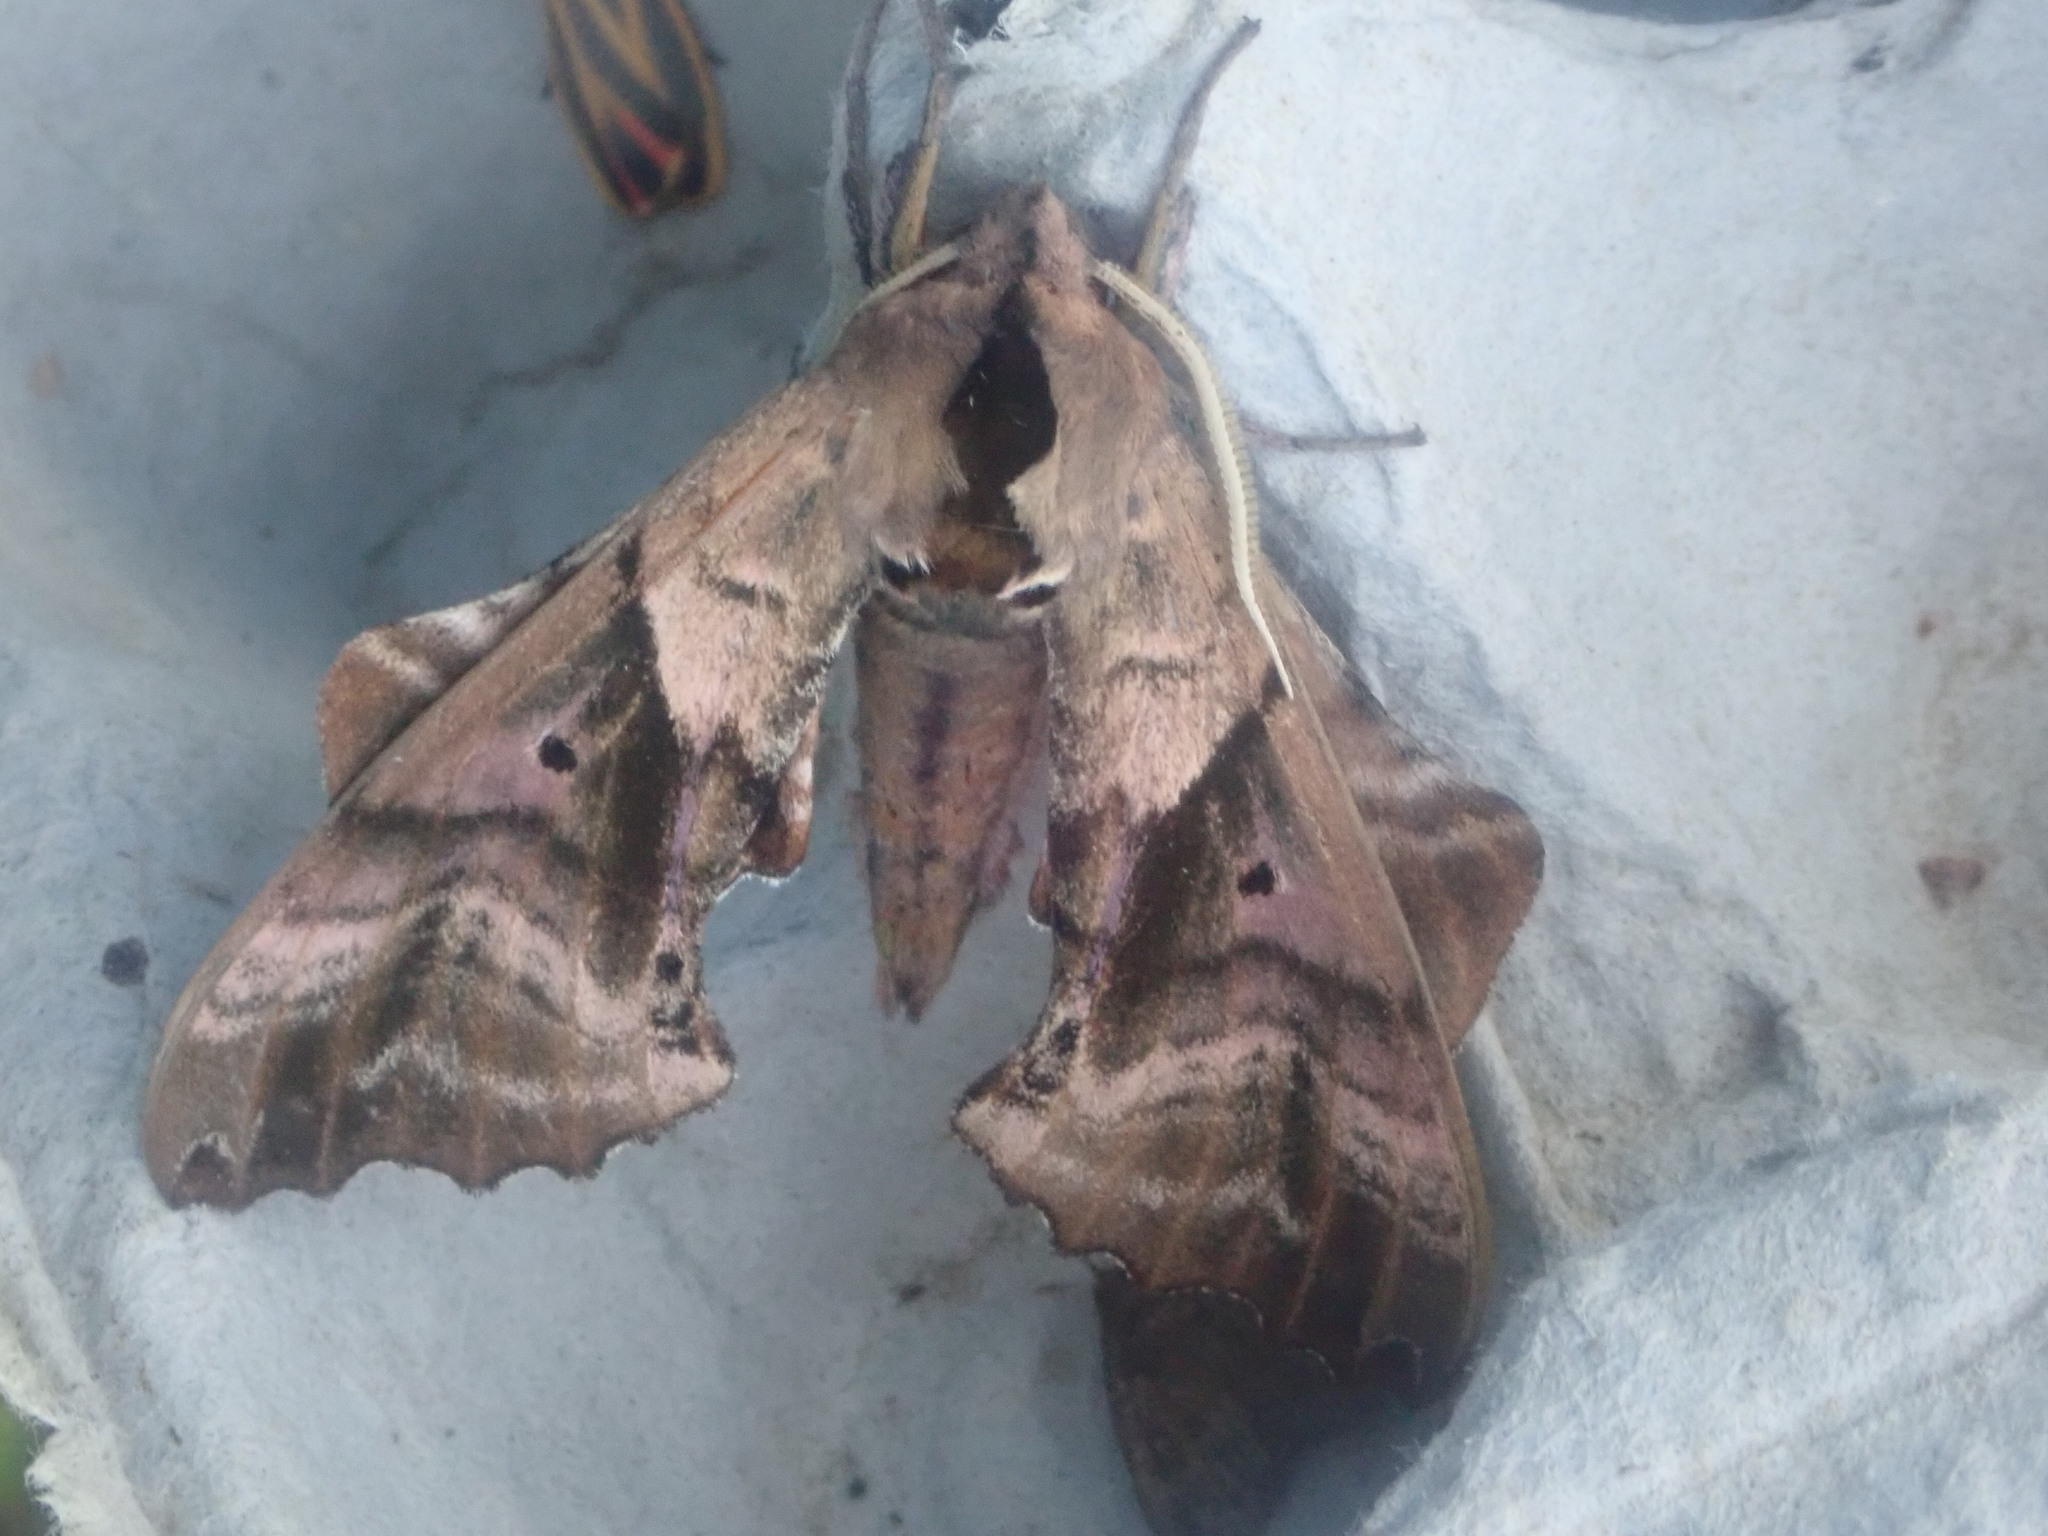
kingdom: Animalia
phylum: Arthropoda
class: Insecta
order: Lepidoptera
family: Sphingidae
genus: Paonias
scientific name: Paonias excaecata
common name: Blind-eyed sphinx
